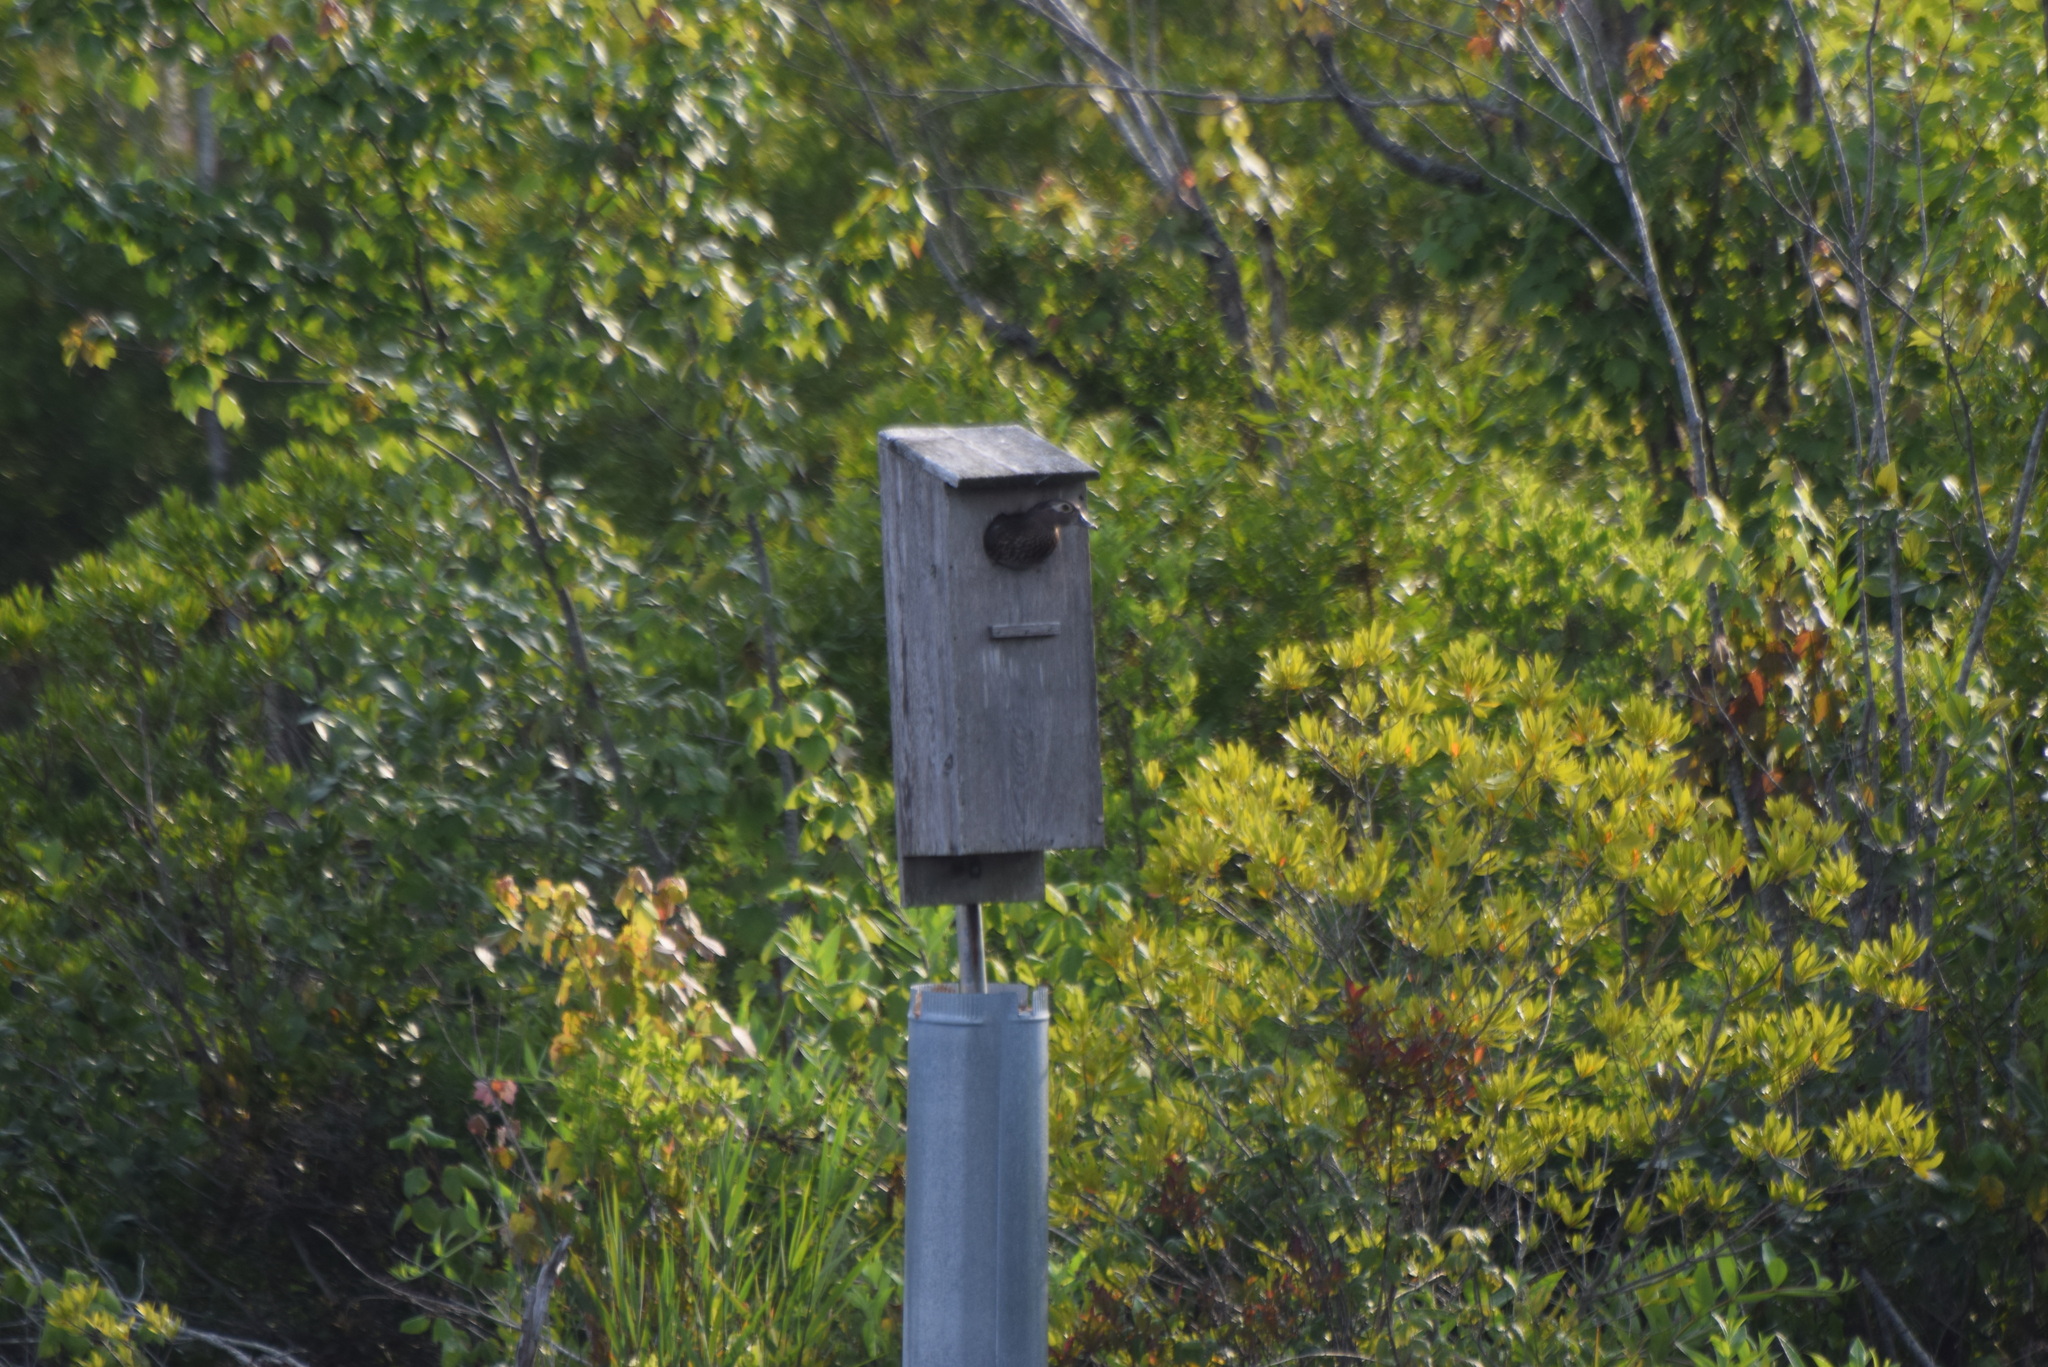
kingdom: Animalia
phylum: Chordata
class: Aves
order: Anseriformes
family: Anatidae
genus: Aix
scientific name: Aix sponsa
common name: Wood duck
